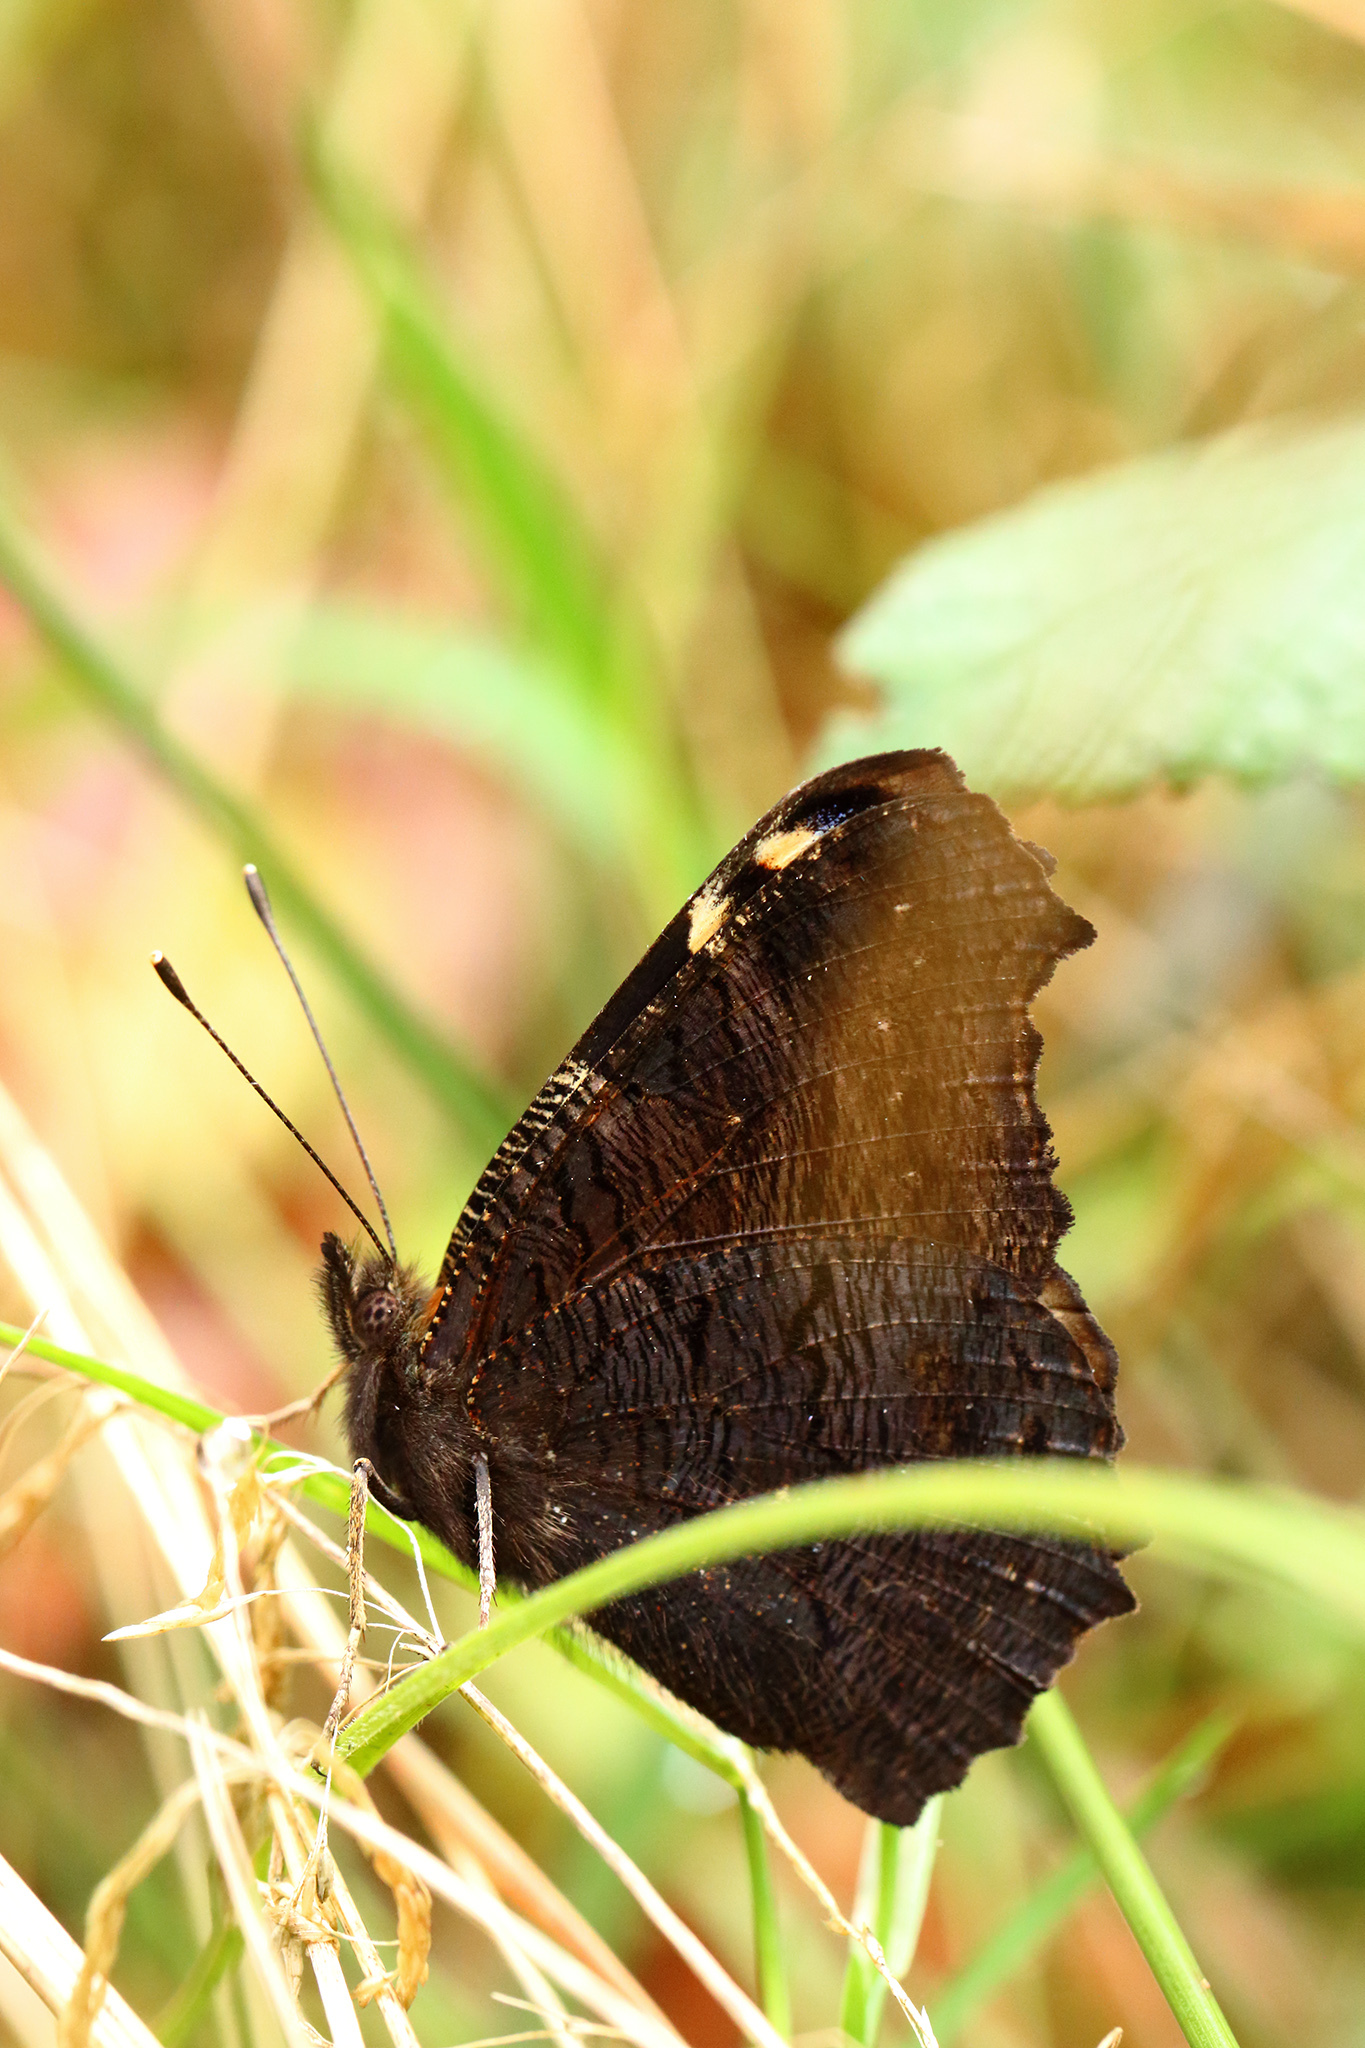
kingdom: Animalia
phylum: Arthropoda
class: Insecta
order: Lepidoptera
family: Nymphalidae
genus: Aglais
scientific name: Aglais io
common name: Peacock
